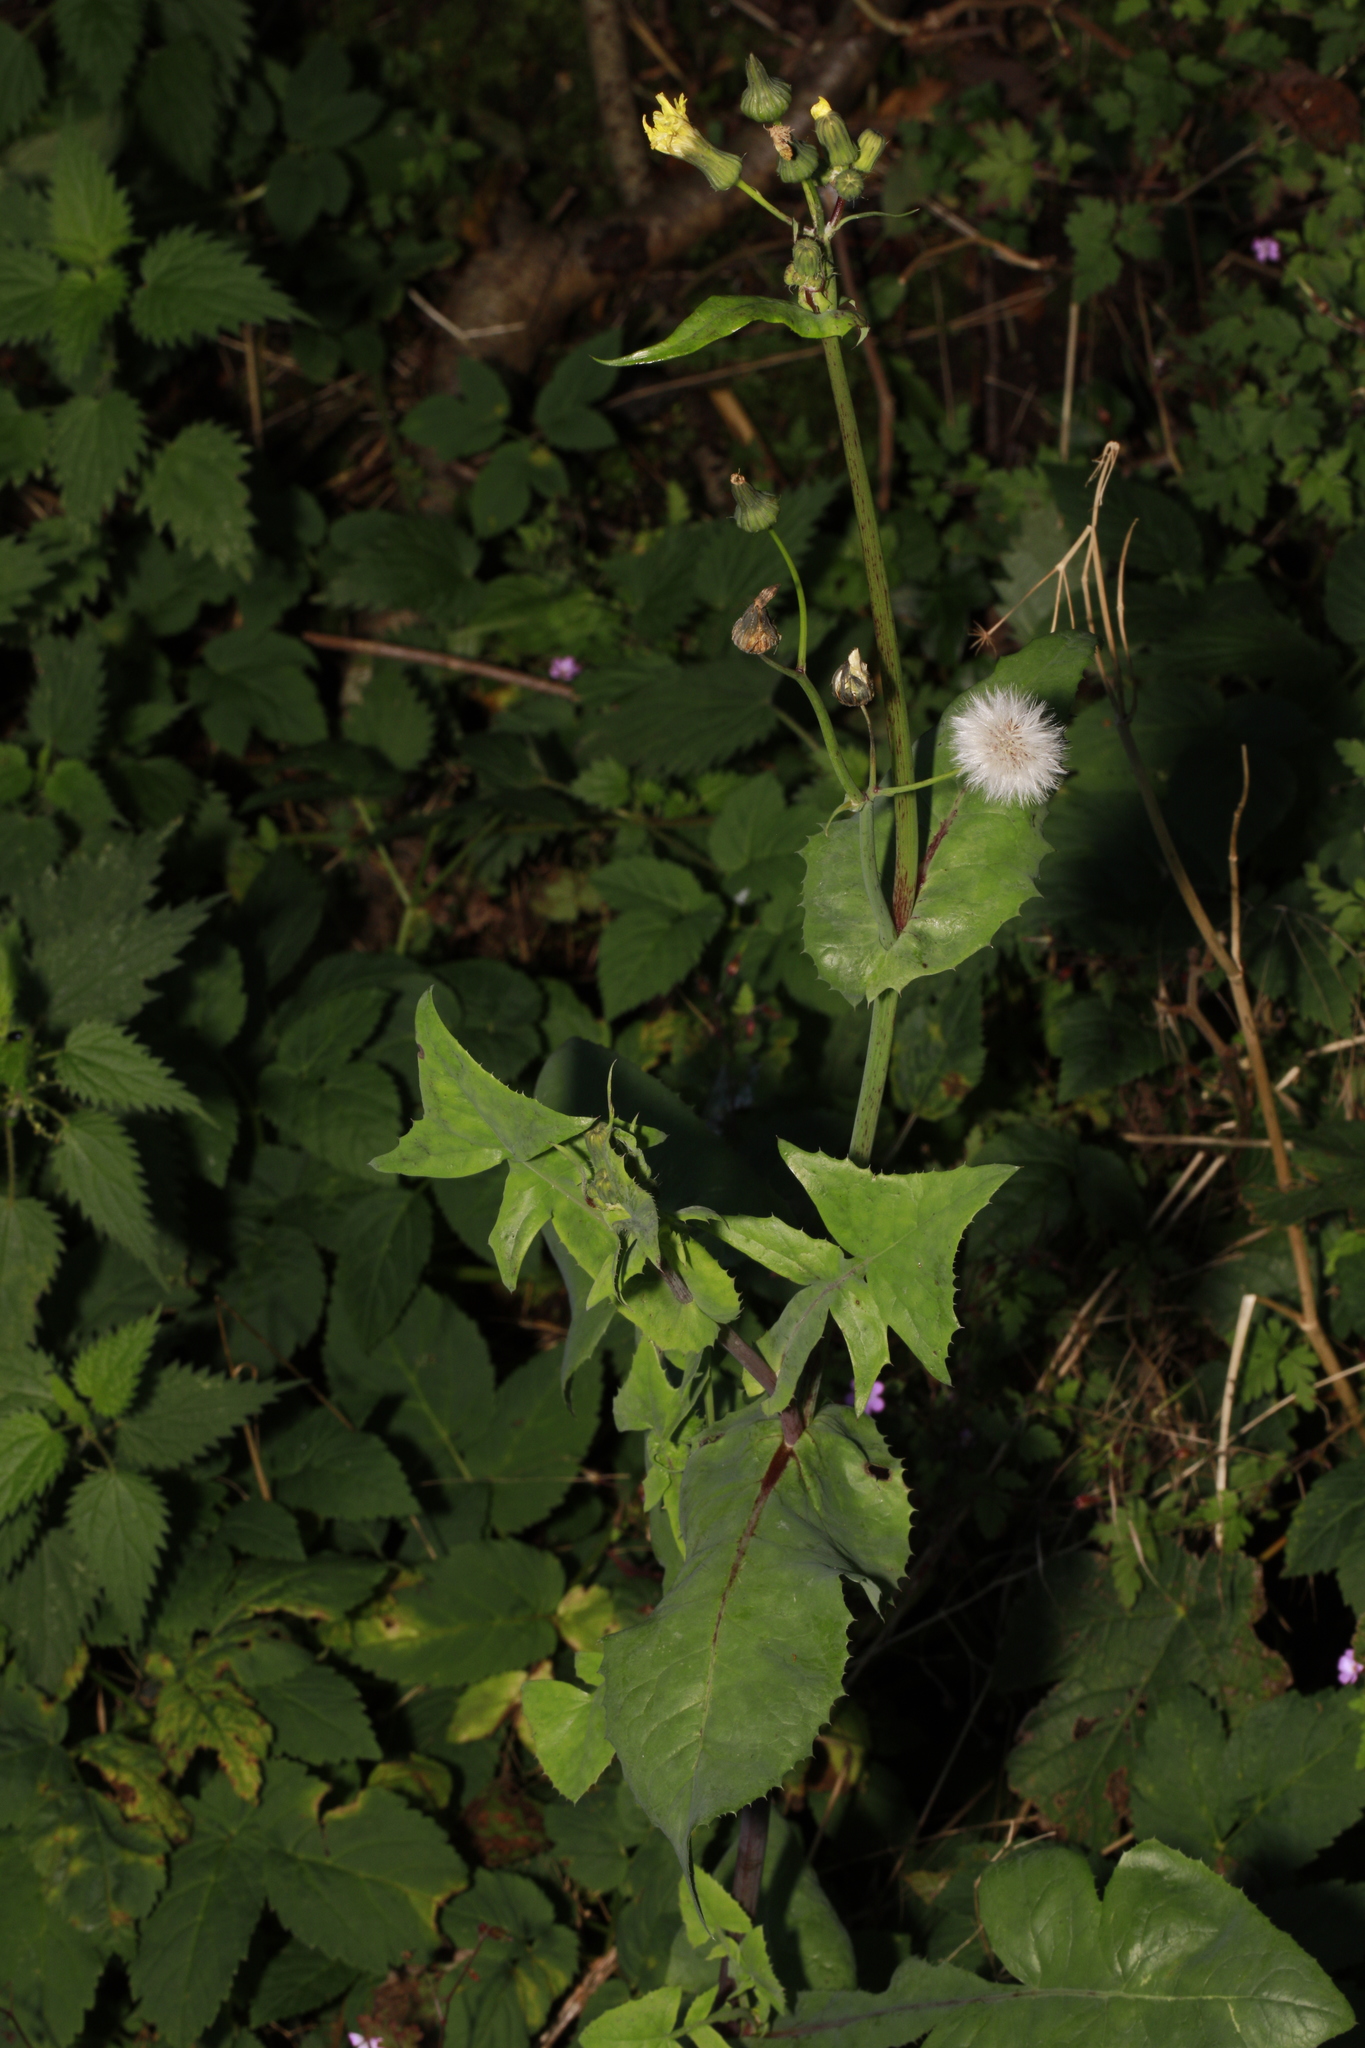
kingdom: Plantae
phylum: Tracheophyta
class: Magnoliopsida
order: Asterales
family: Asteraceae
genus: Sonchus
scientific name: Sonchus oleraceus
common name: Common sowthistle
